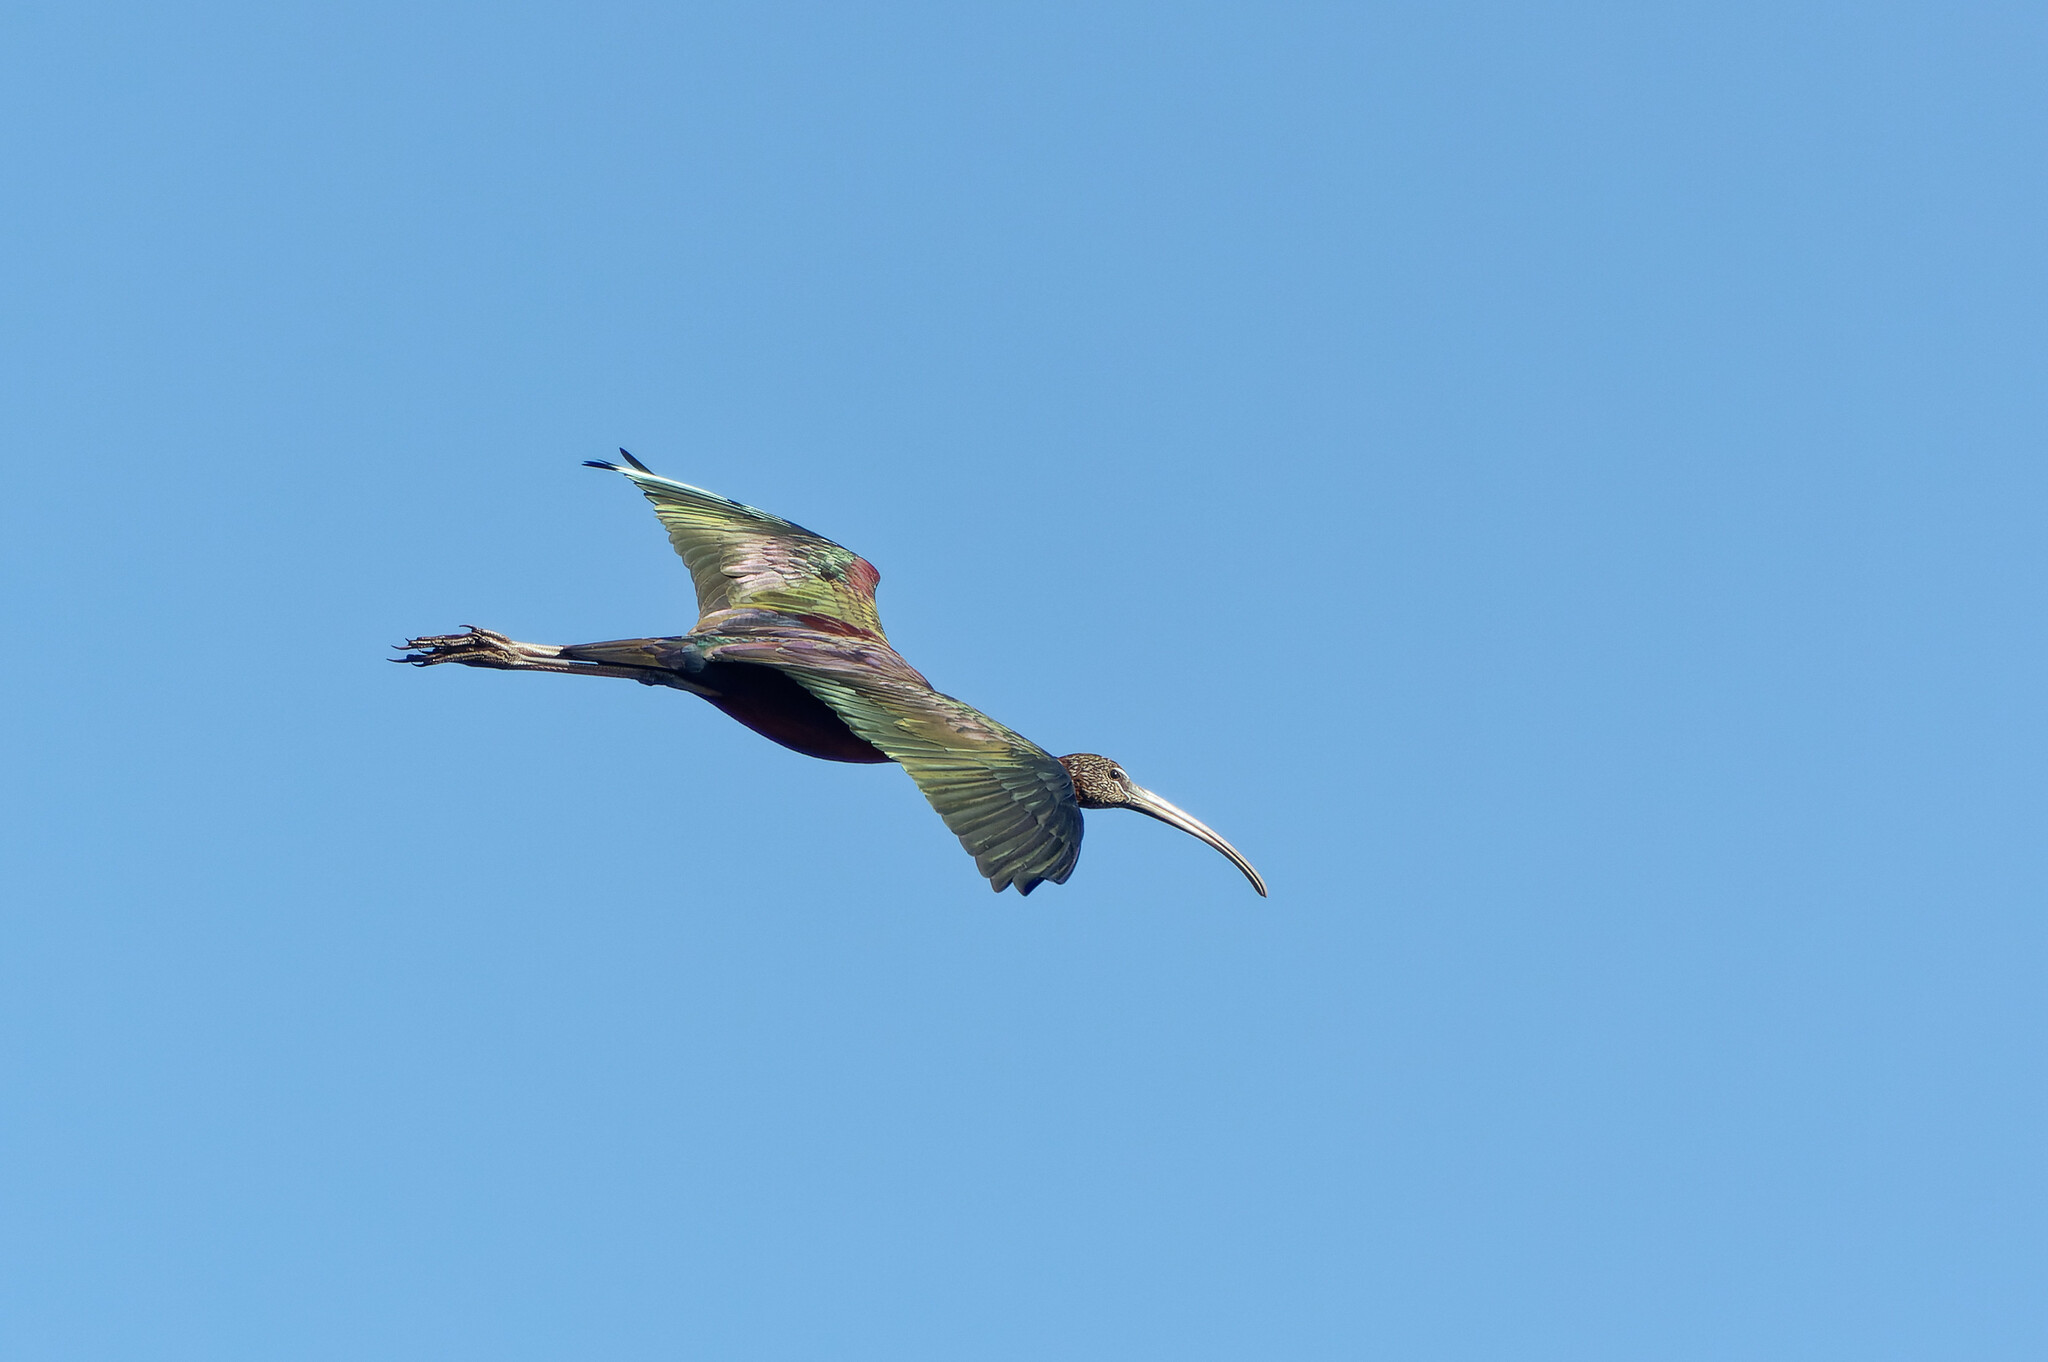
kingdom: Animalia
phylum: Chordata
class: Aves
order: Pelecaniformes
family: Threskiornithidae
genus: Plegadis
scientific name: Plegadis falcinellus
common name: Glossy ibis
